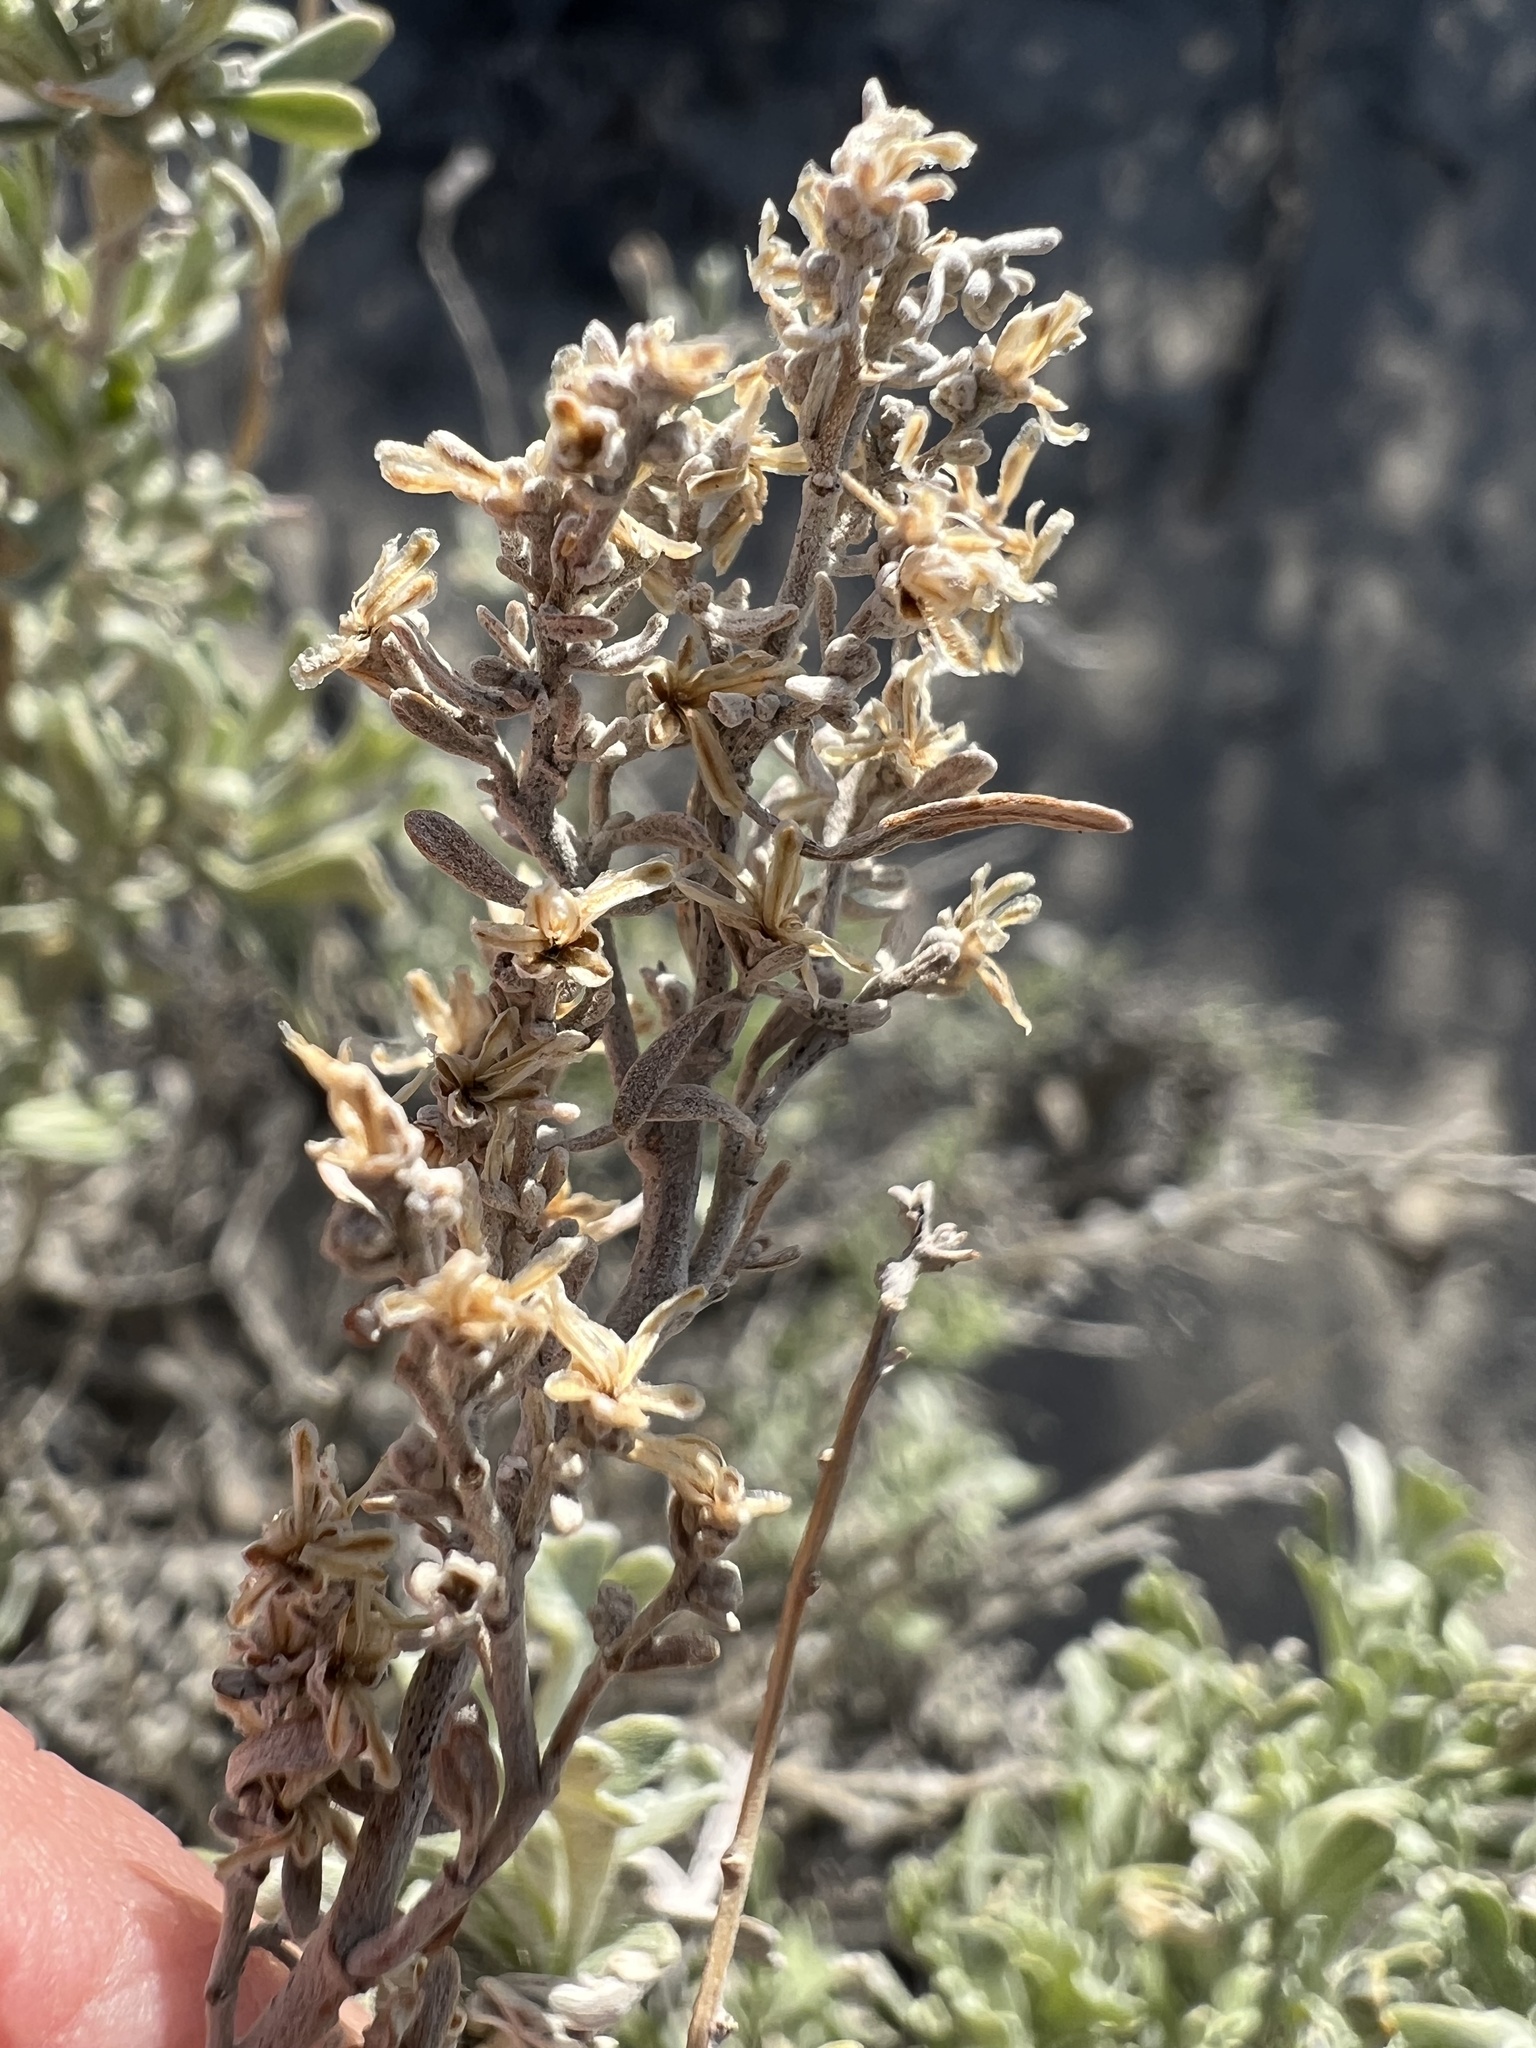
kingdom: Plantae
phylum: Tracheophyta
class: Magnoliopsida
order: Asterales
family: Asteraceae
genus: Artemisia
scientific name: Artemisia tridentata
